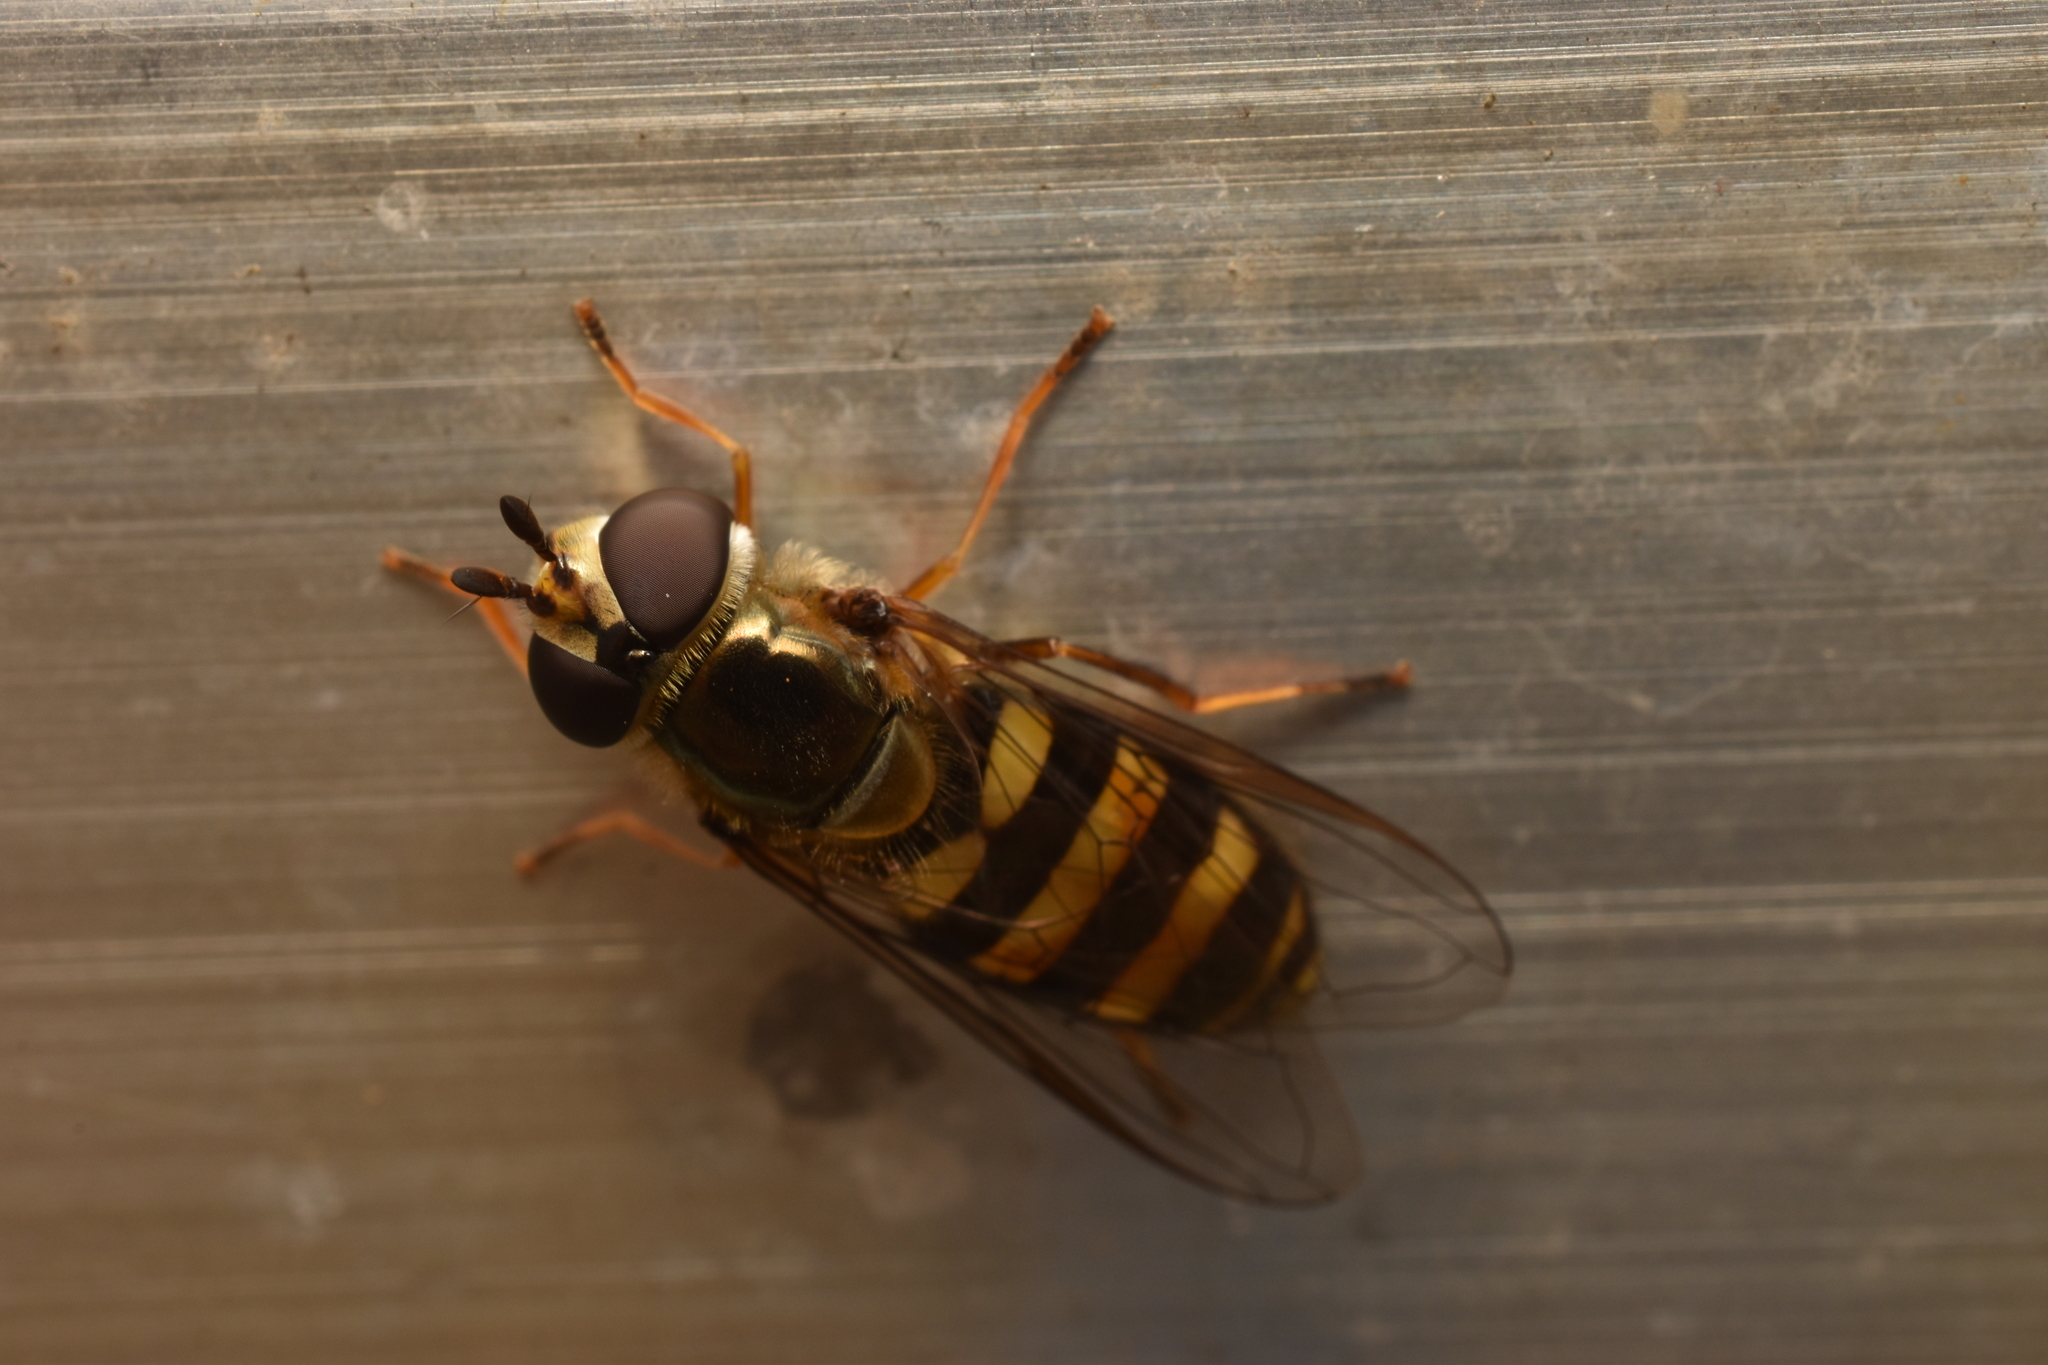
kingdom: Animalia
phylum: Arthropoda
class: Insecta
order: Diptera
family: Syrphidae
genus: Eupeodes
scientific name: Eupeodes
